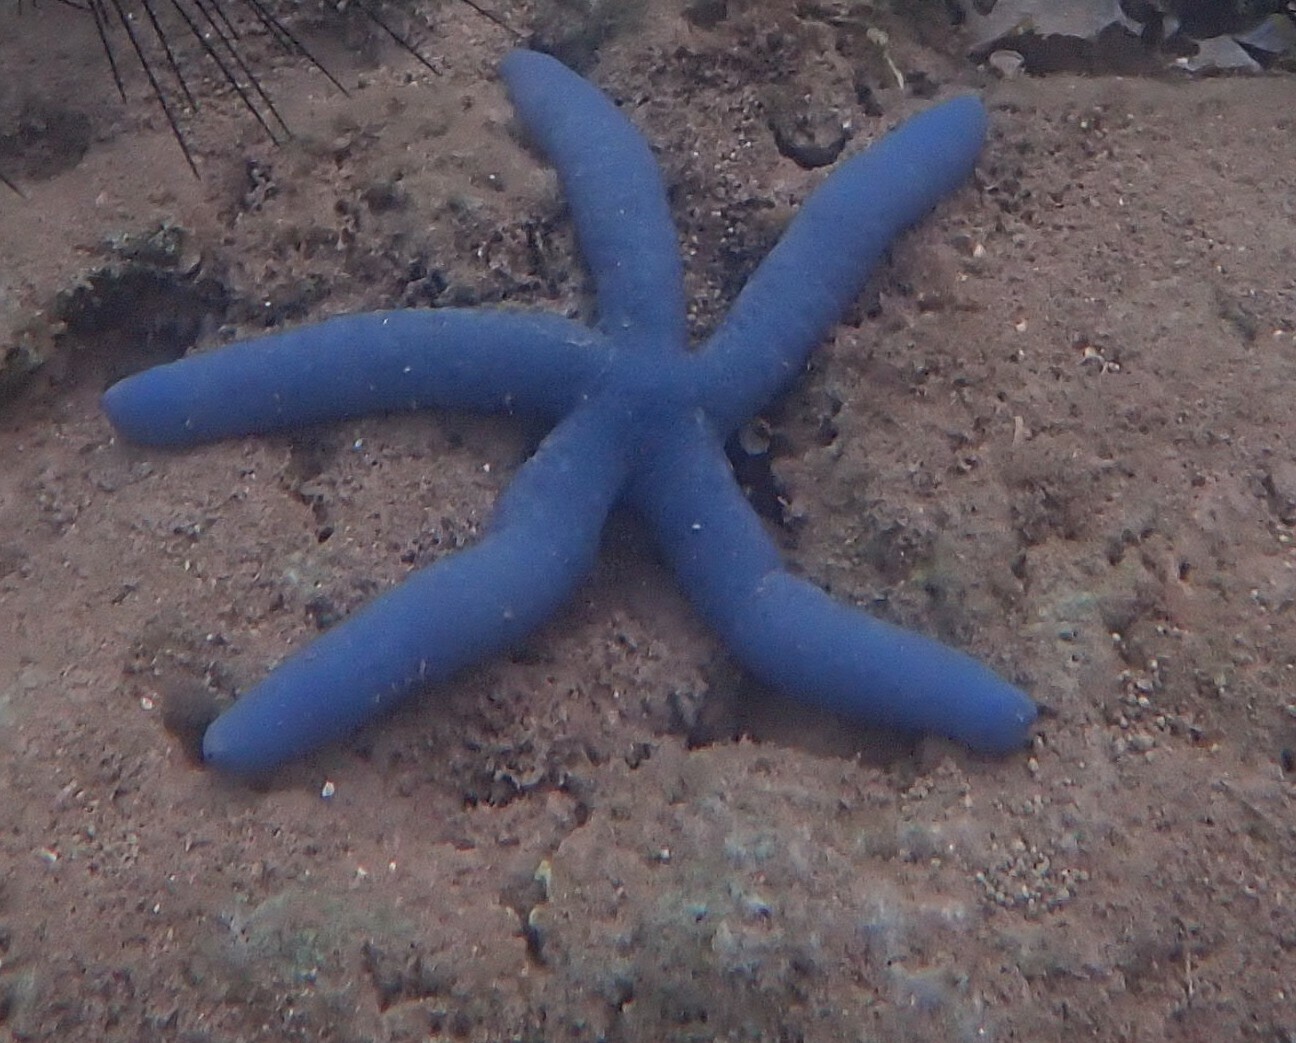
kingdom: Animalia
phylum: Echinodermata
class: Asteroidea
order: Valvatida
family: Ophidiasteridae
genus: Linckia
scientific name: Linckia laevigata
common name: Azure sea star
